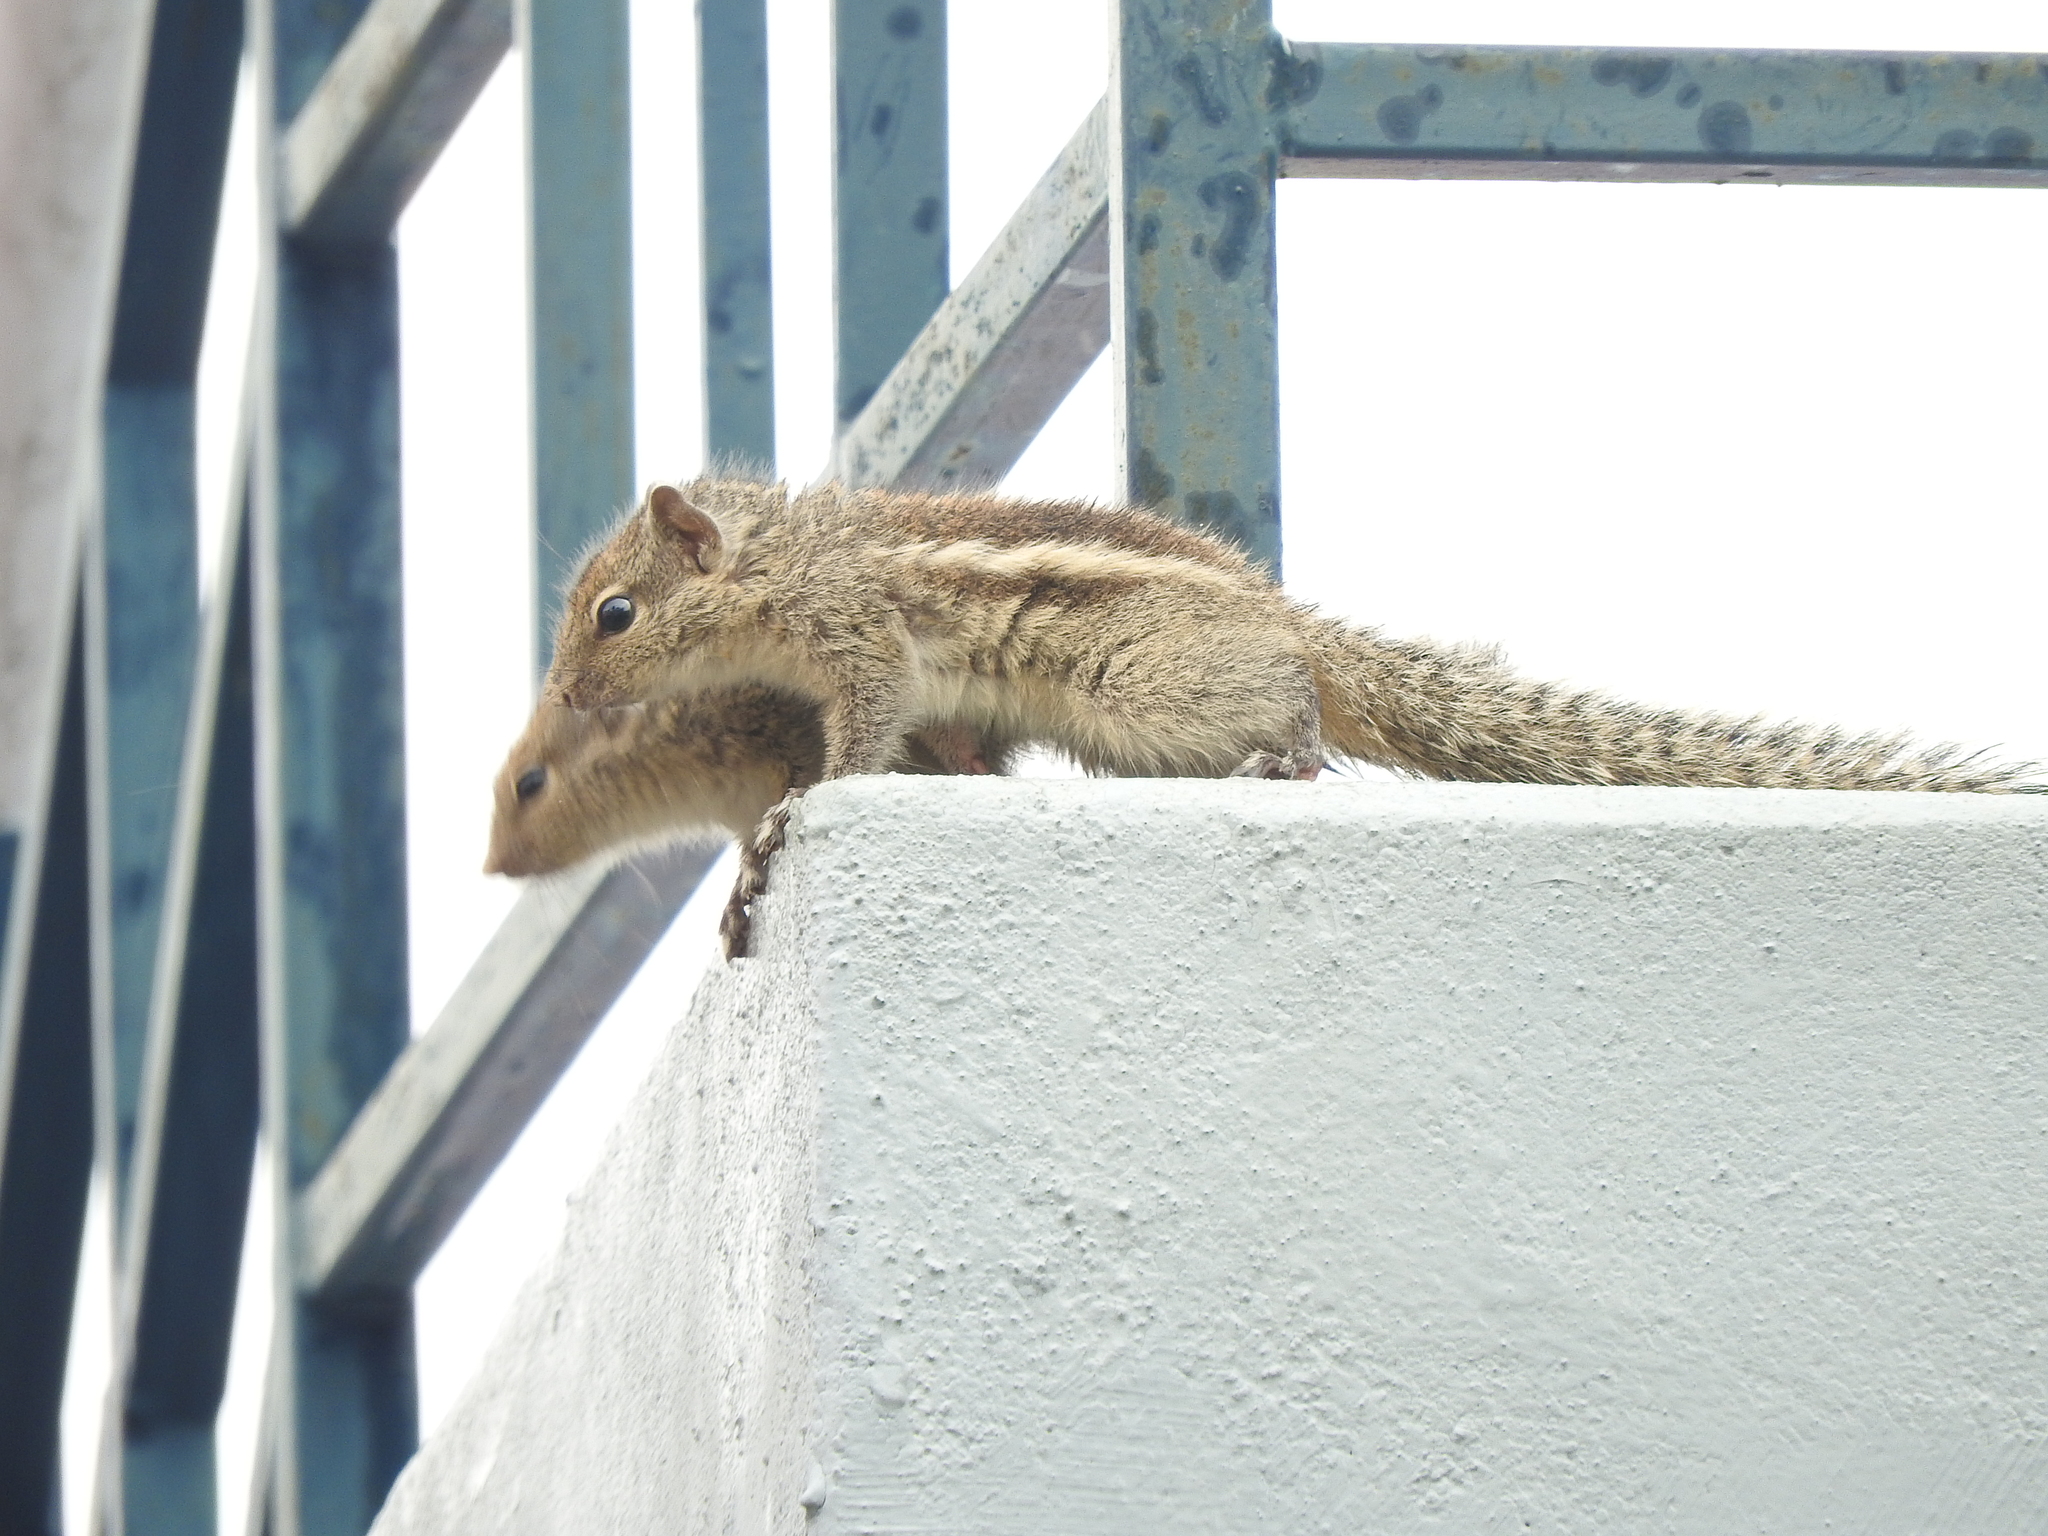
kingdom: Animalia
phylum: Chordata
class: Mammalia
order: Rodentia
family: Sciuridae
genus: Funambulus
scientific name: Funambulus palmarum
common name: Indian palm squirrel
